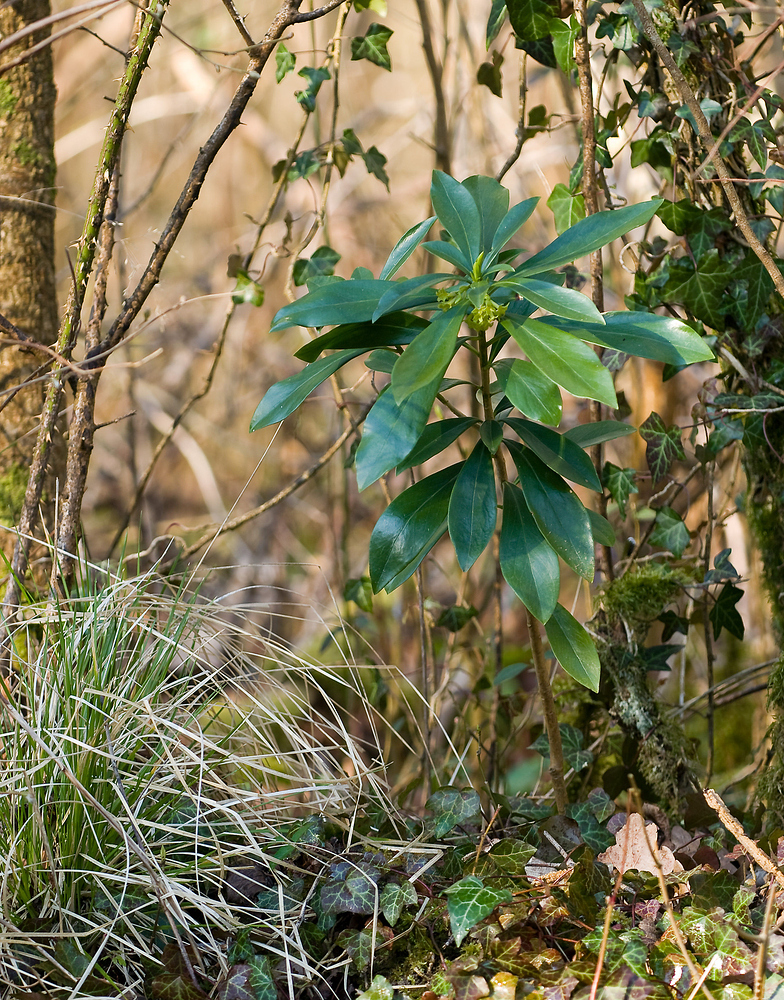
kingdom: Plantae
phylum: Tracheophyta
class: Magnoliopsida
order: Malvales
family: Thymelaeaceae
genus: Daphne
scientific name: Daphne laureola
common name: Spurge-laurel
